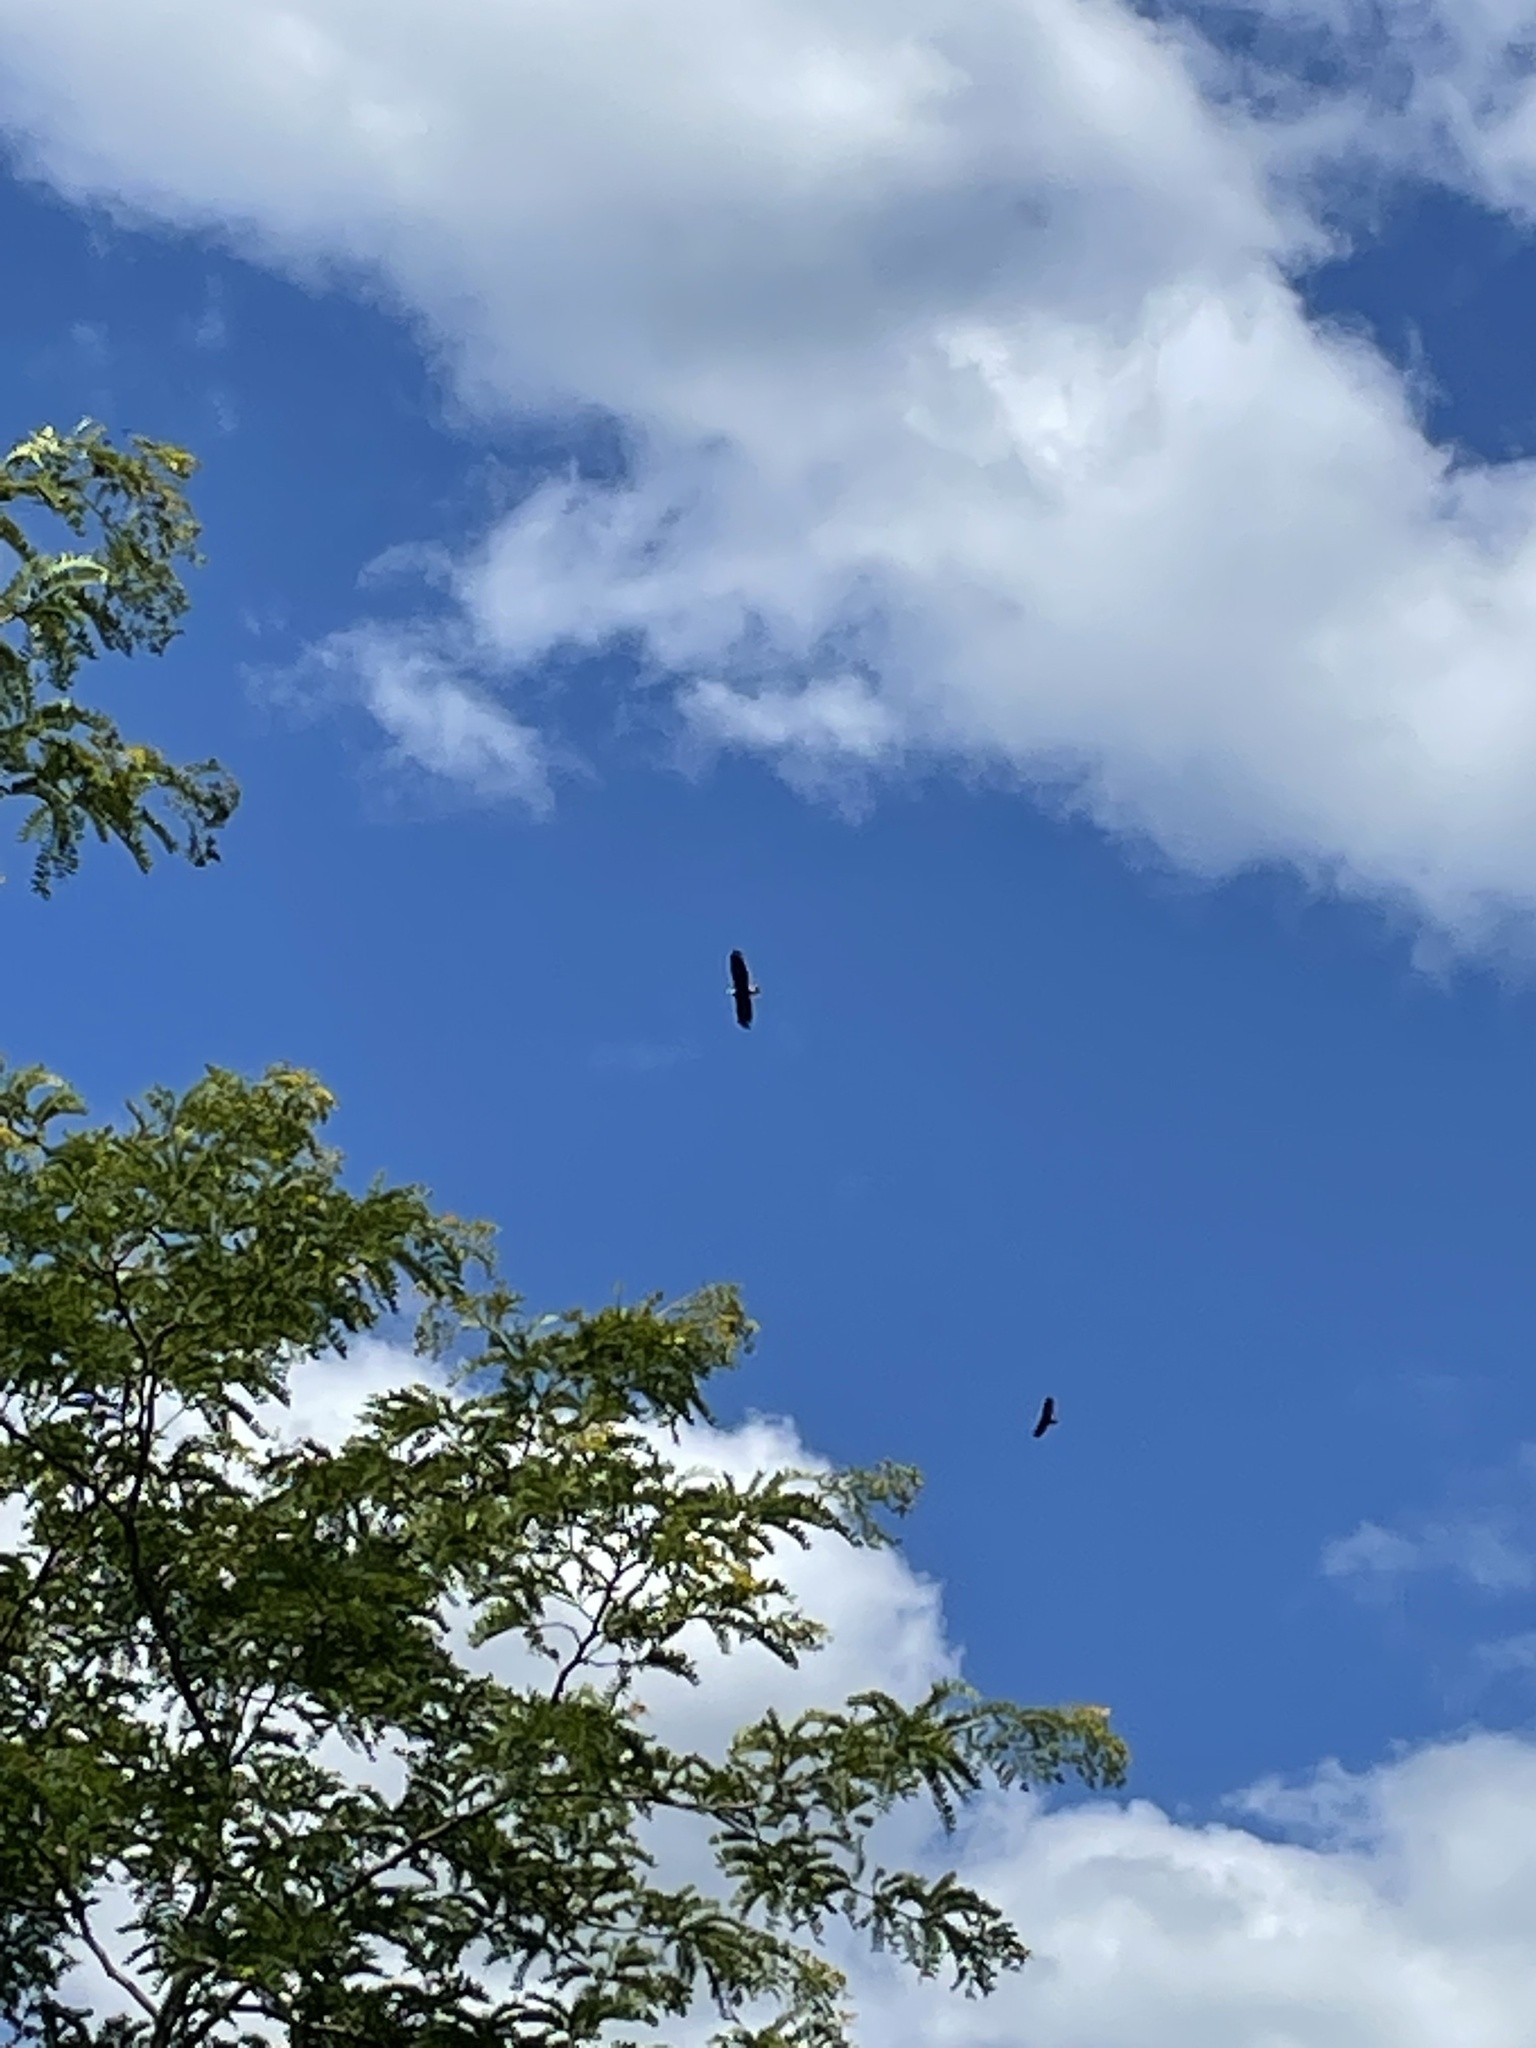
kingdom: Animalia
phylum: Chordata
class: Aves
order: Accipitriformes
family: Accipitridae
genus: Haliaeetus
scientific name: Haliaeetus leucocephalus
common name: Bald eagle
